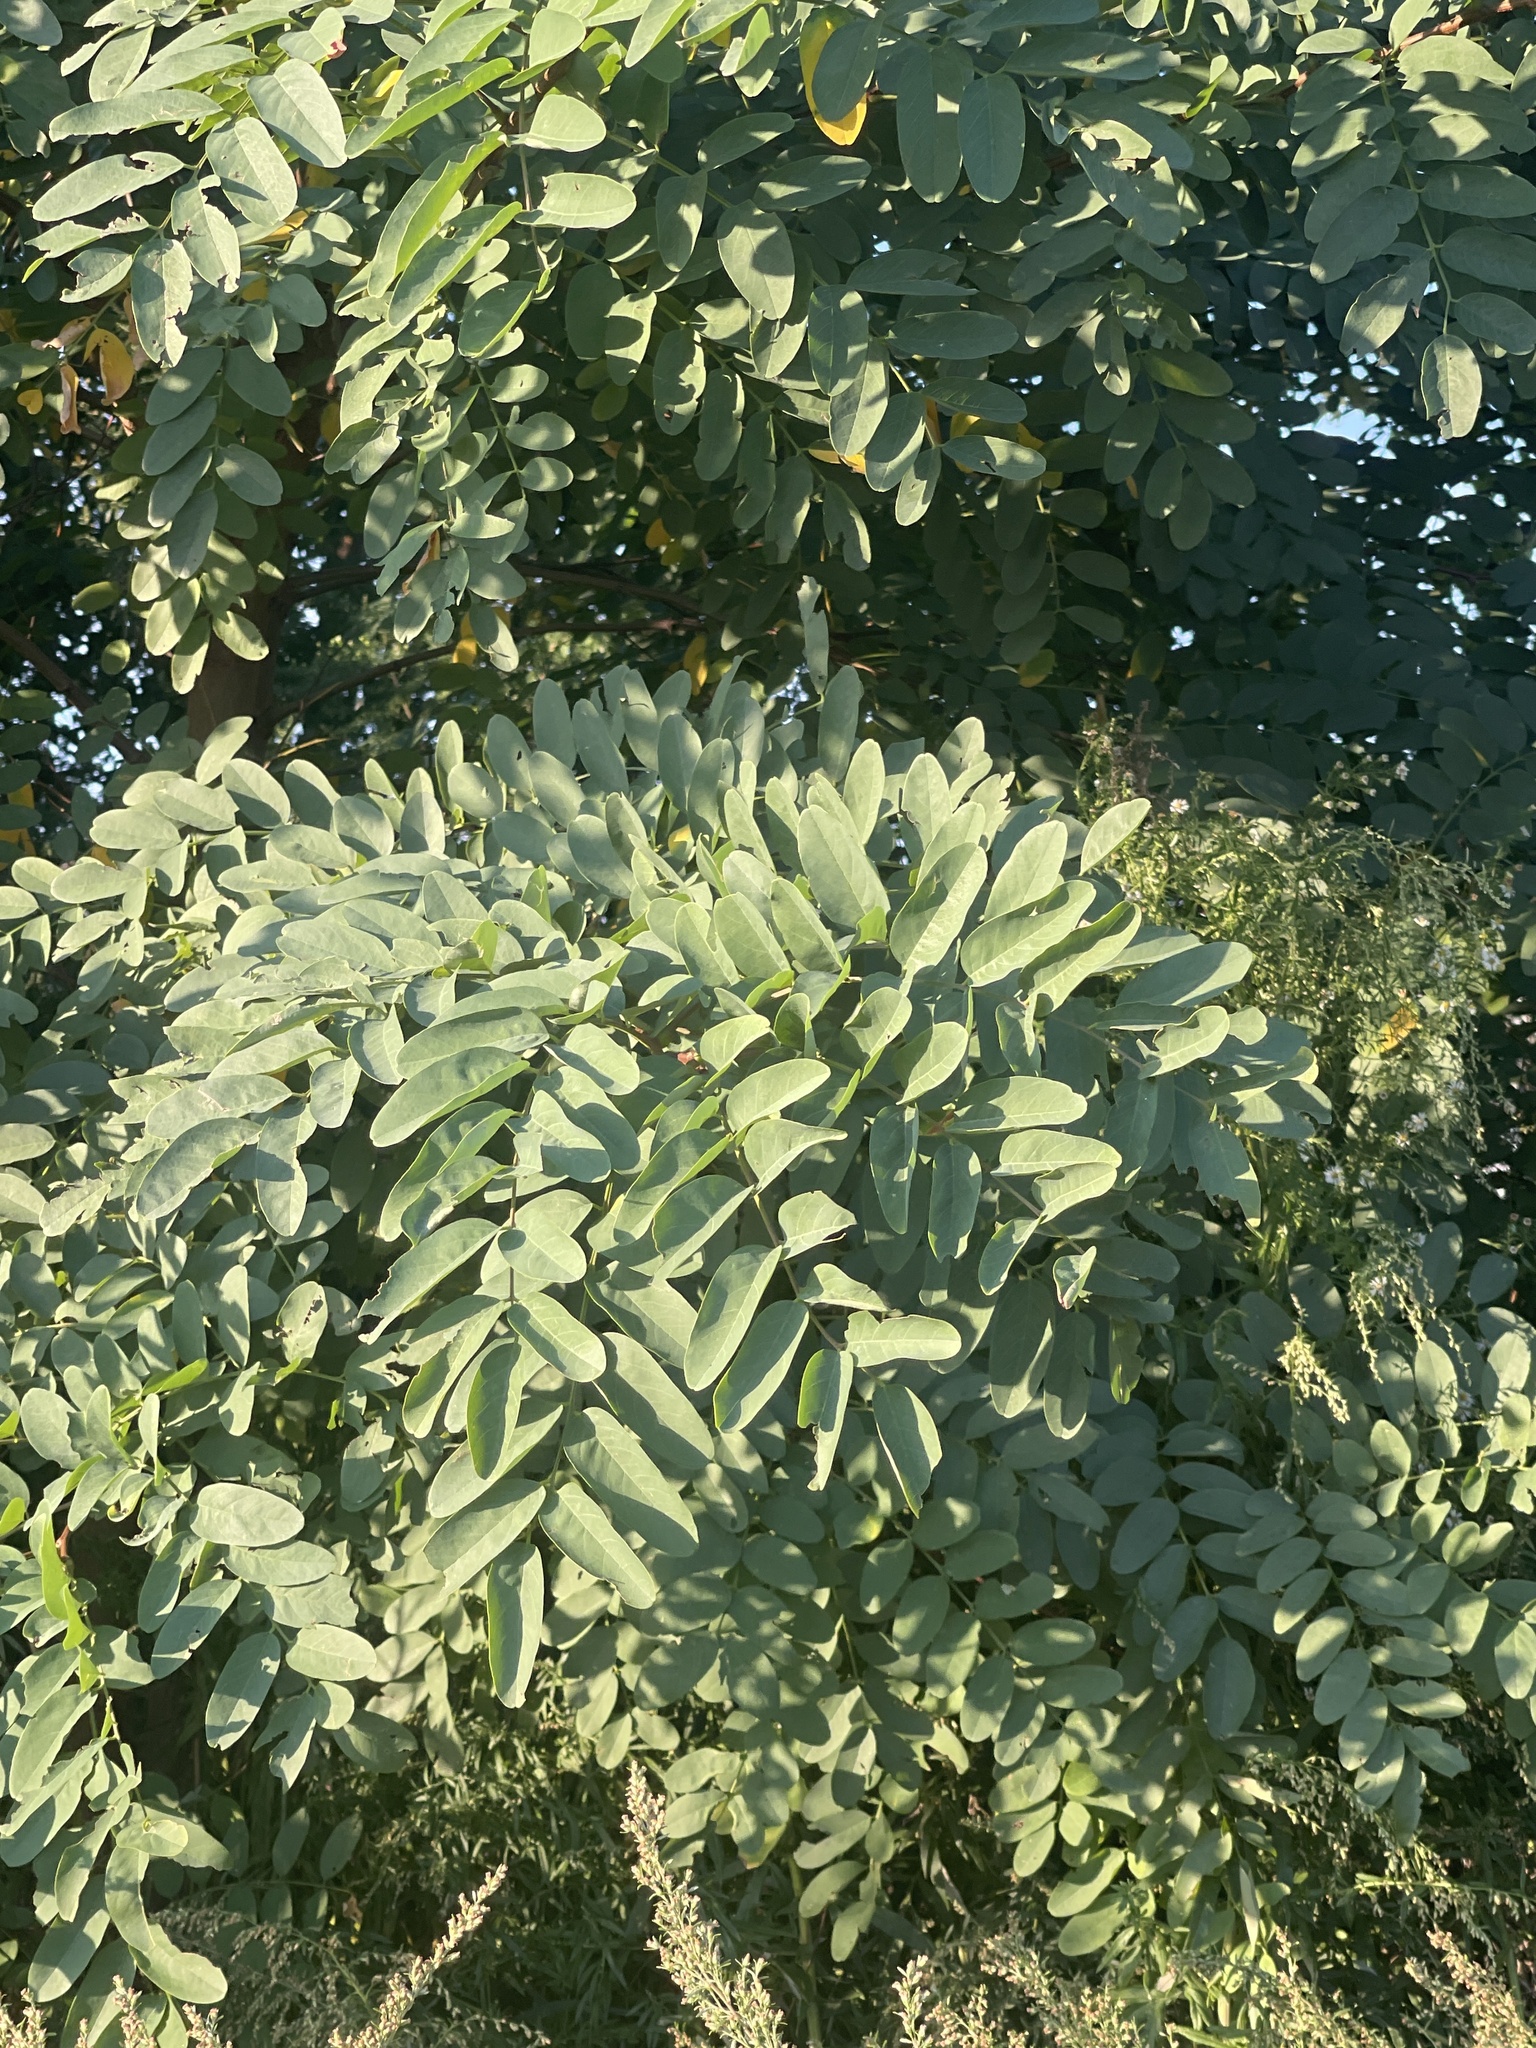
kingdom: Plantae
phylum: Tracheophyta
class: Magnoliopsida
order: Fabales
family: Fabaceae
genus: Robinia
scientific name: Robinia pseudoacacia
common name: Black locust
